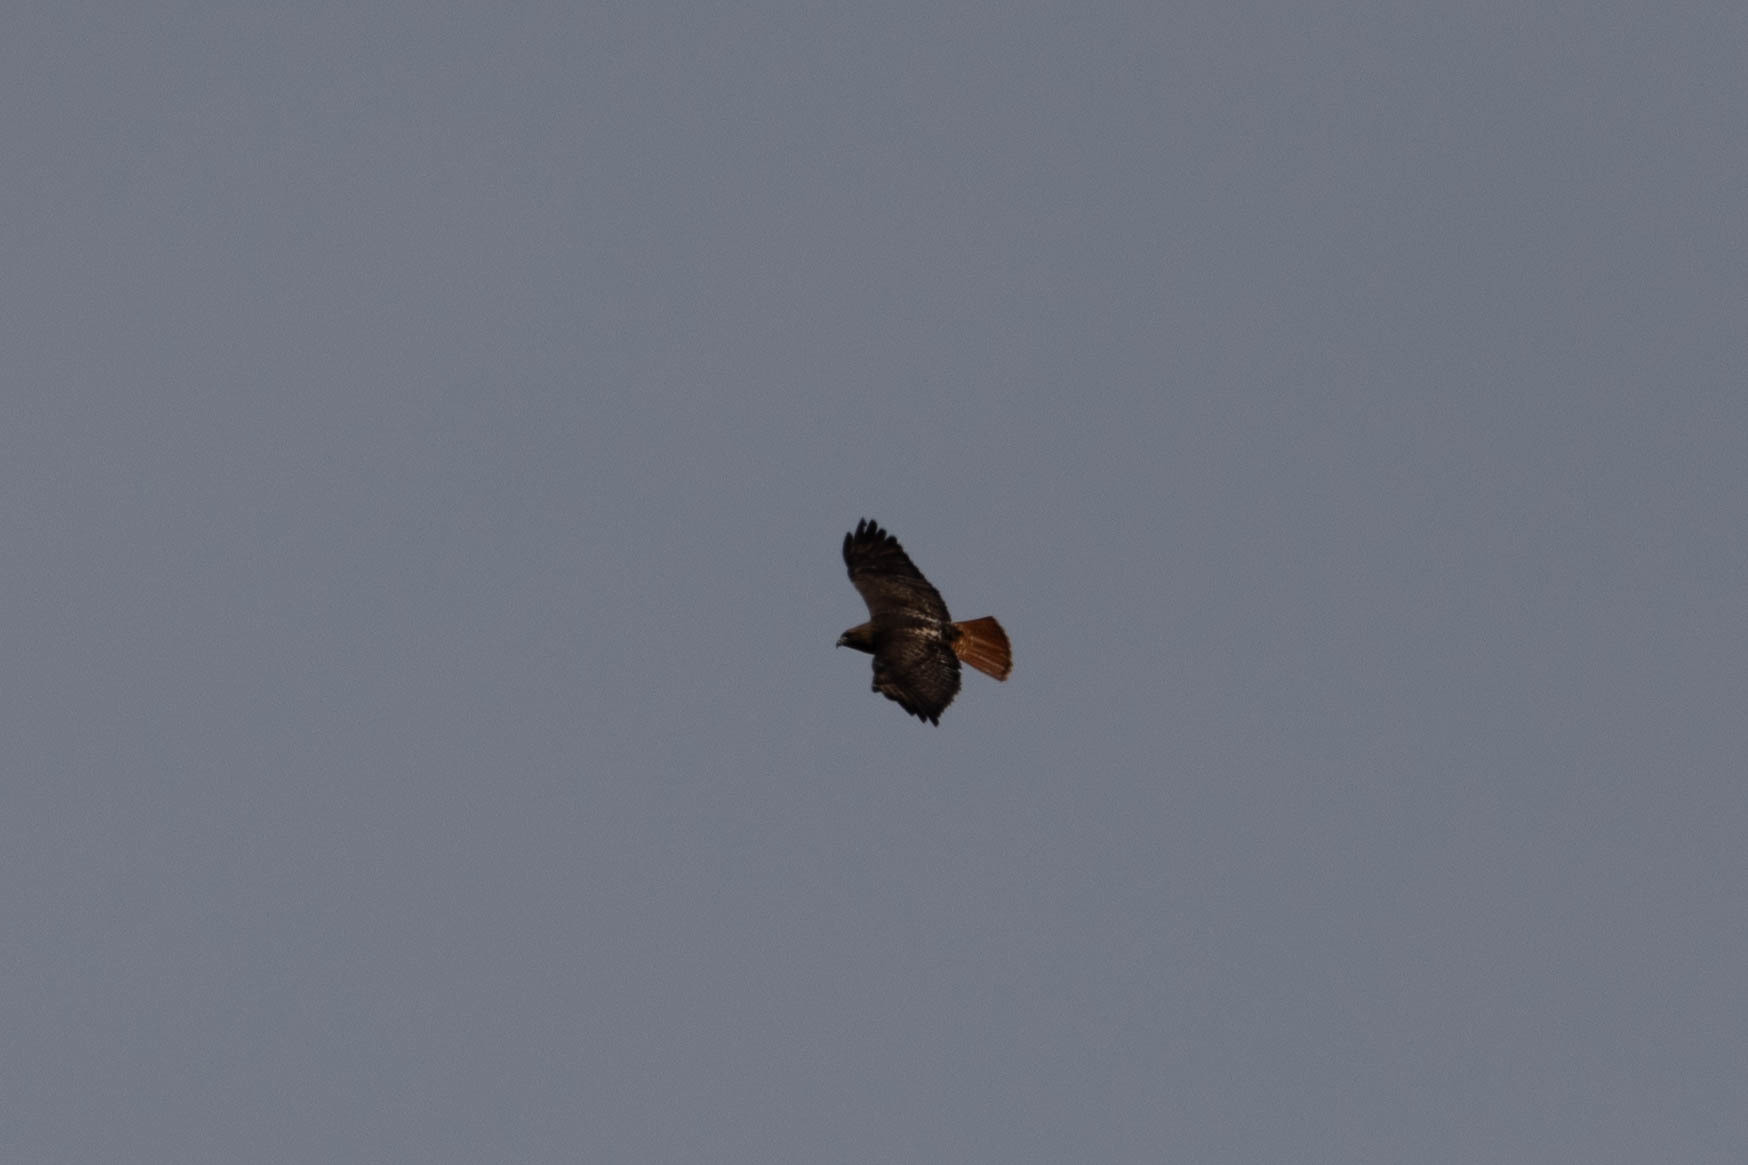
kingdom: Animalia
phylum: Chordata
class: Aves
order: Accipitriformes
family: Accipitridae
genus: Buteo
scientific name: Buteo jamaicensis
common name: Red-tailed hawk
